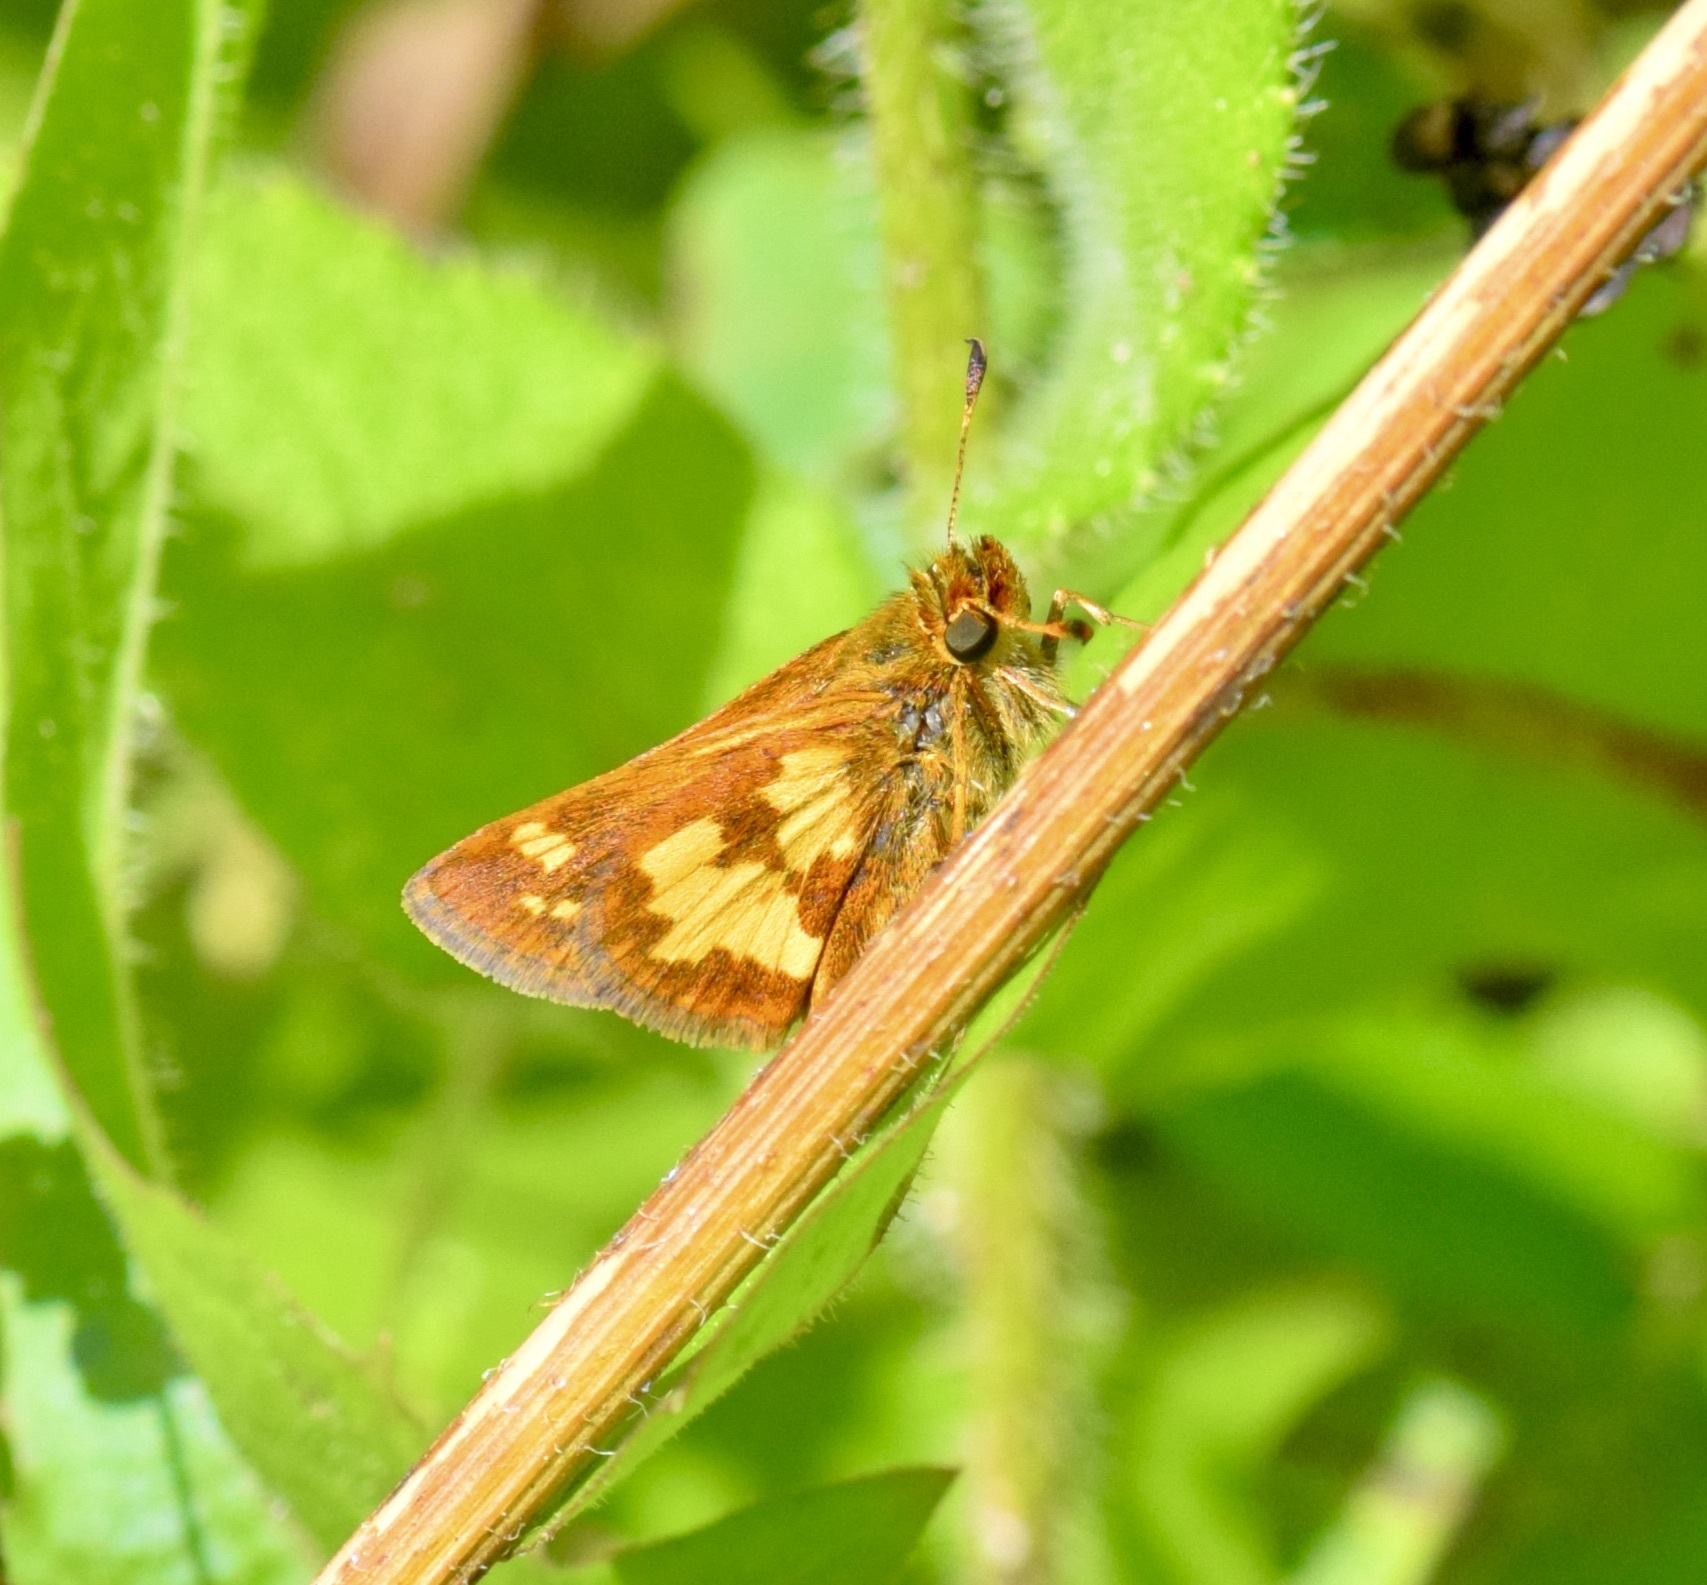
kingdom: Animalia
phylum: Arthropoda
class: Insecta
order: Lepidoptera
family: Hesperiidae
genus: Polites
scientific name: Polites coras
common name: Peck's skipper
